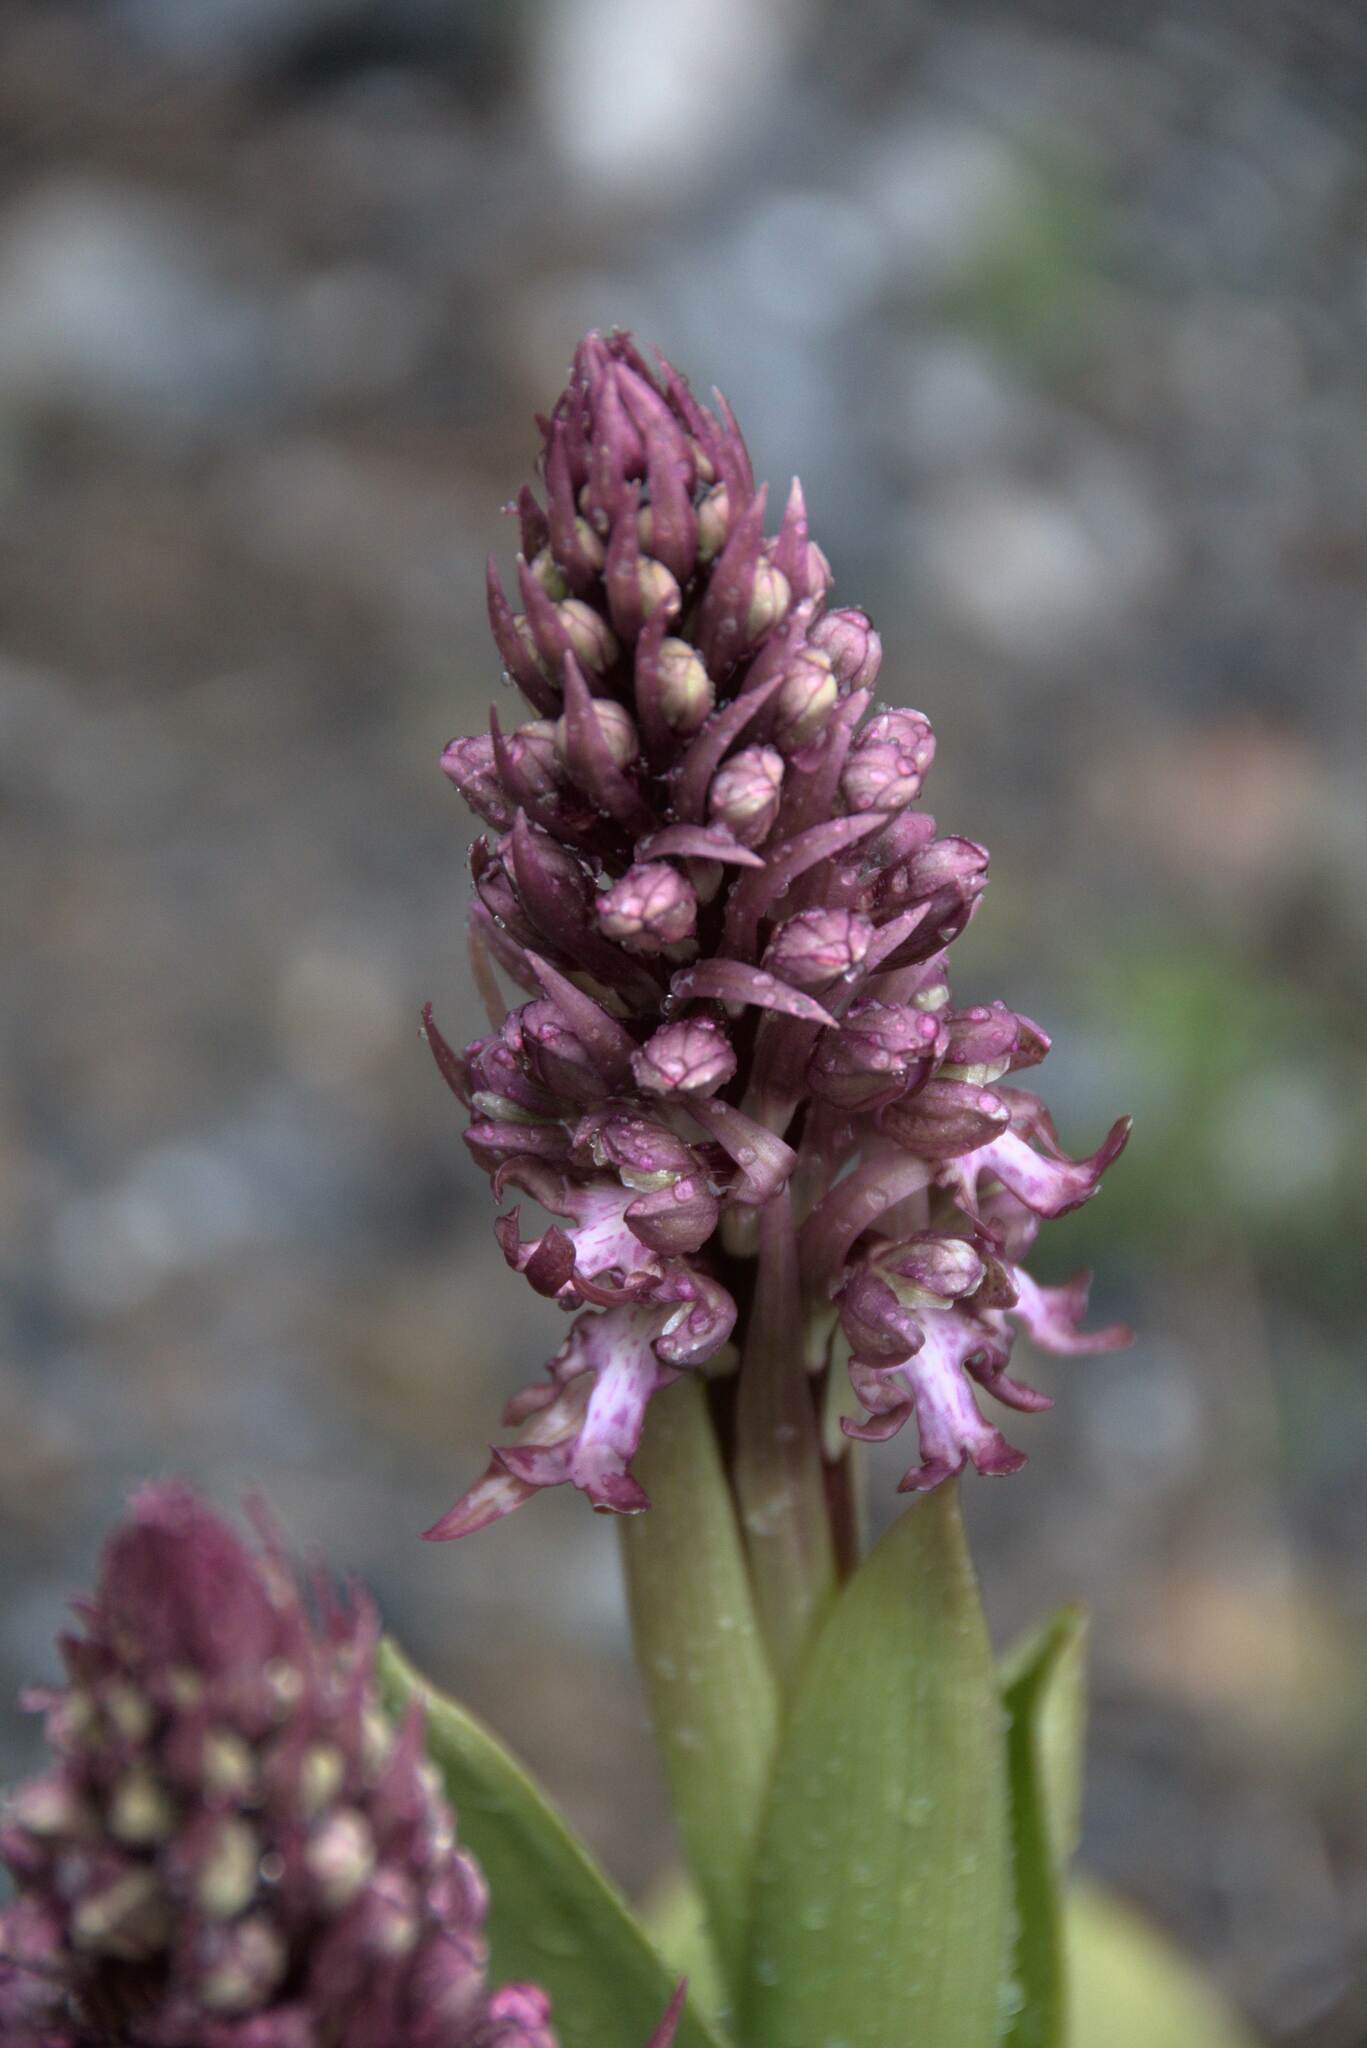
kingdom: Plantae
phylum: Tracheophyta
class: Liliopsida
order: Asparagales
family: Orchidaceae
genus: Himantoglossum
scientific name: Himantoglossum robertianum
